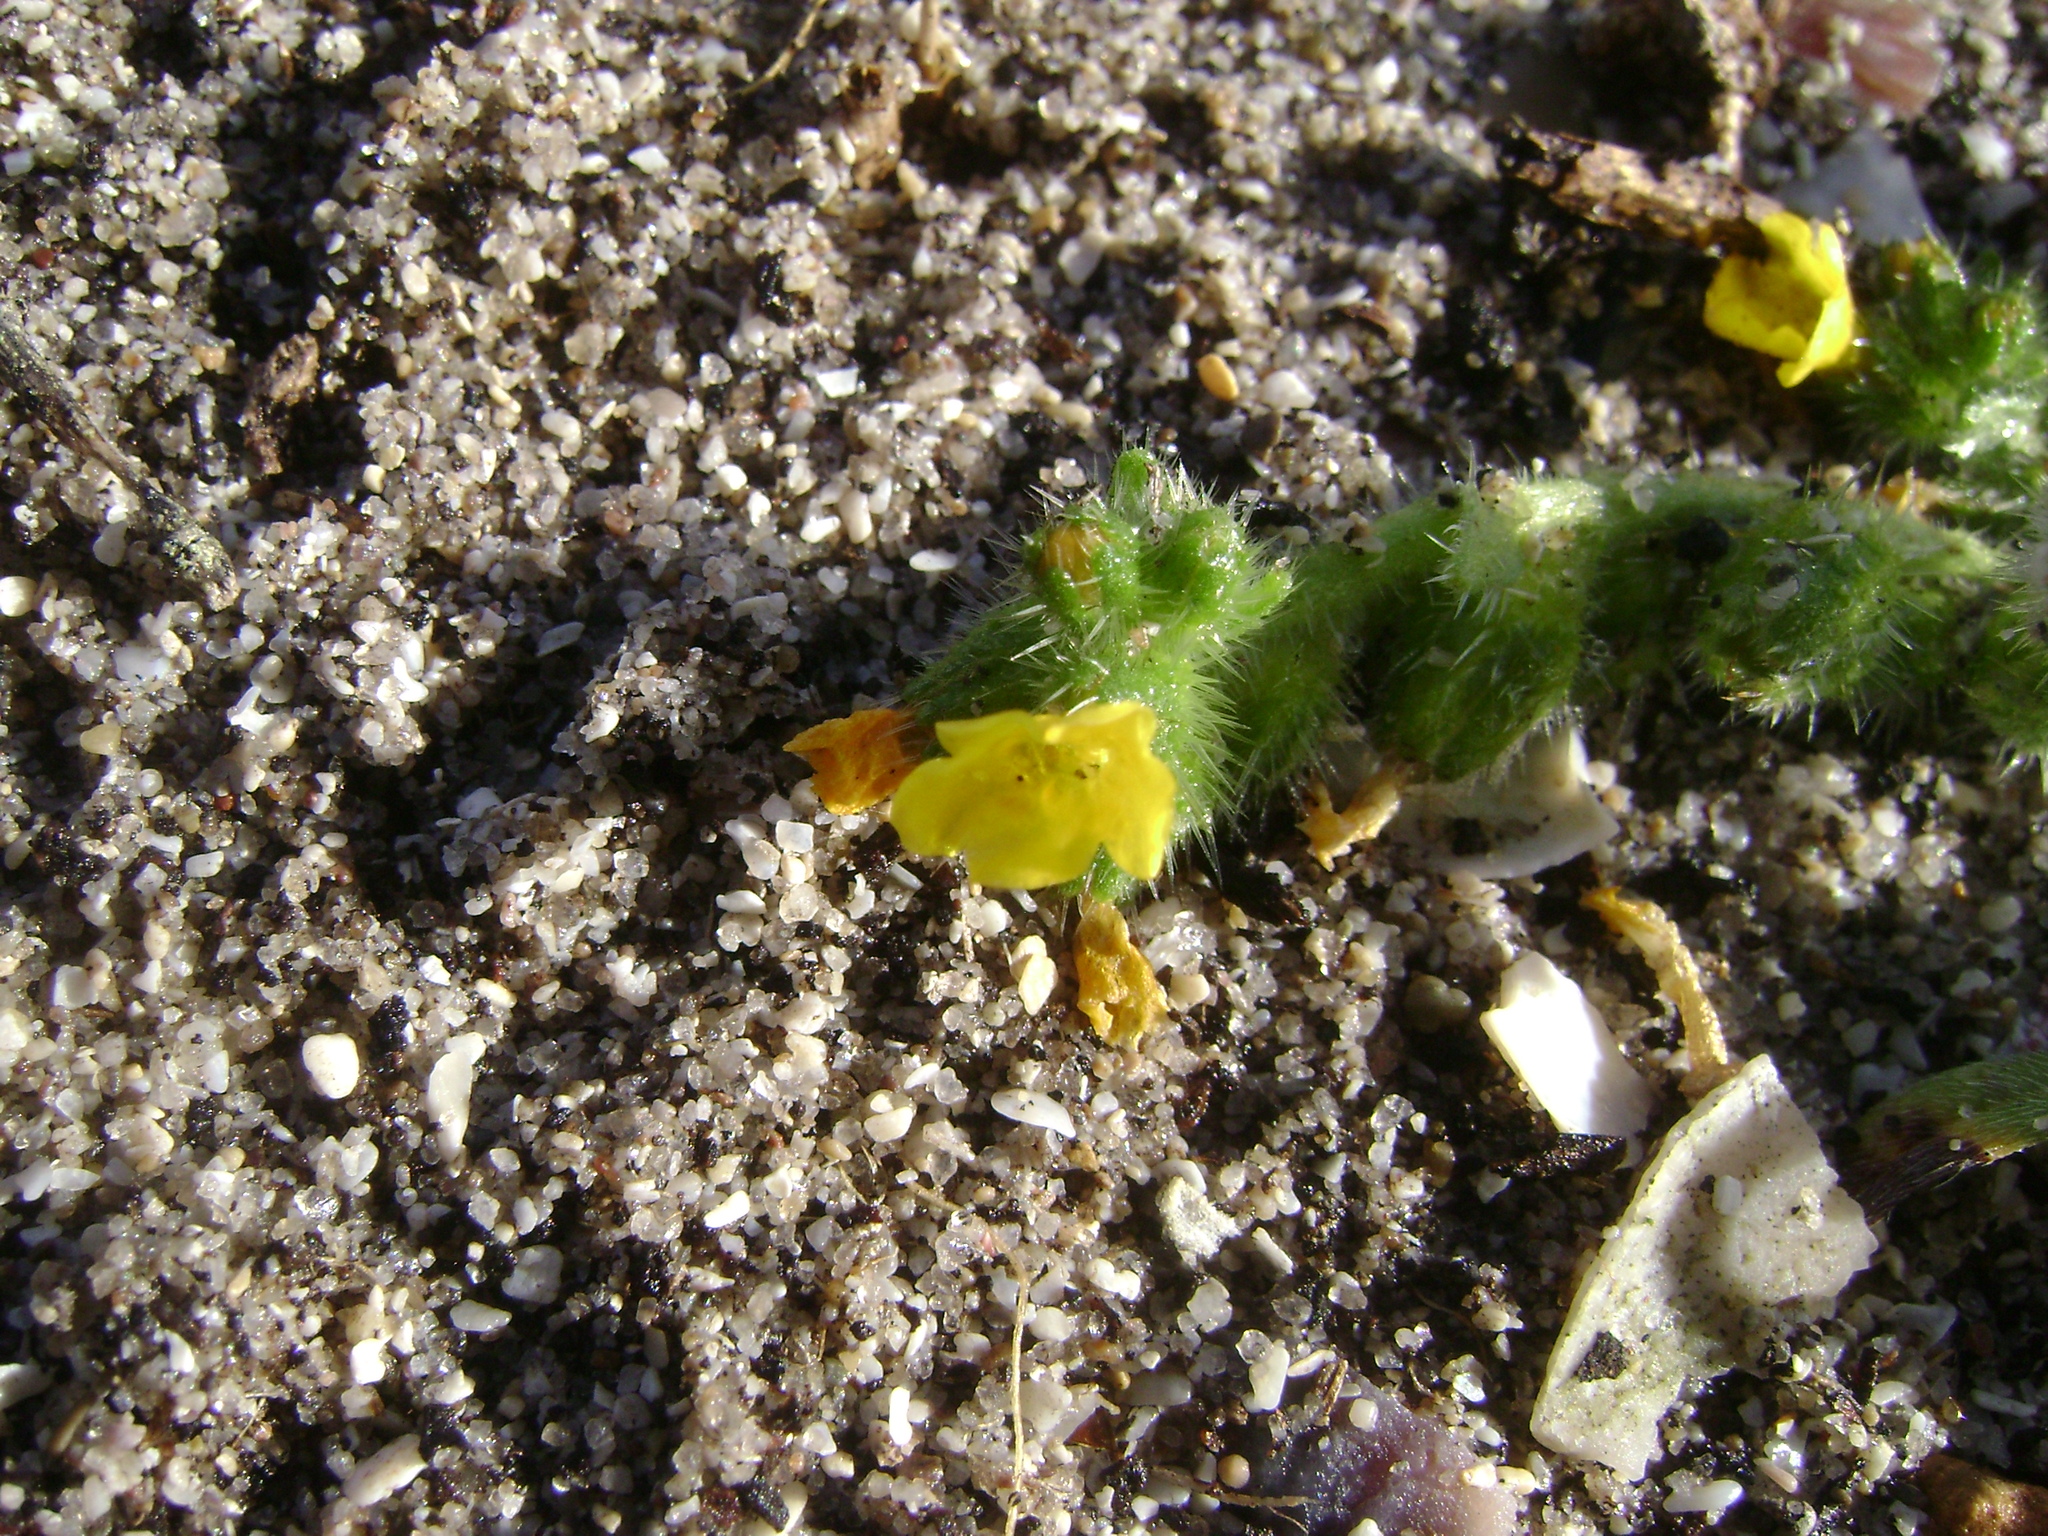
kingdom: Plantae
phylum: Tracheophyta
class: Magnoliopsida
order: Boraginales
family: Boraginaceae
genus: Amsinckia
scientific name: Amsinckia spectabilis
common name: Seaside fiddleneck
